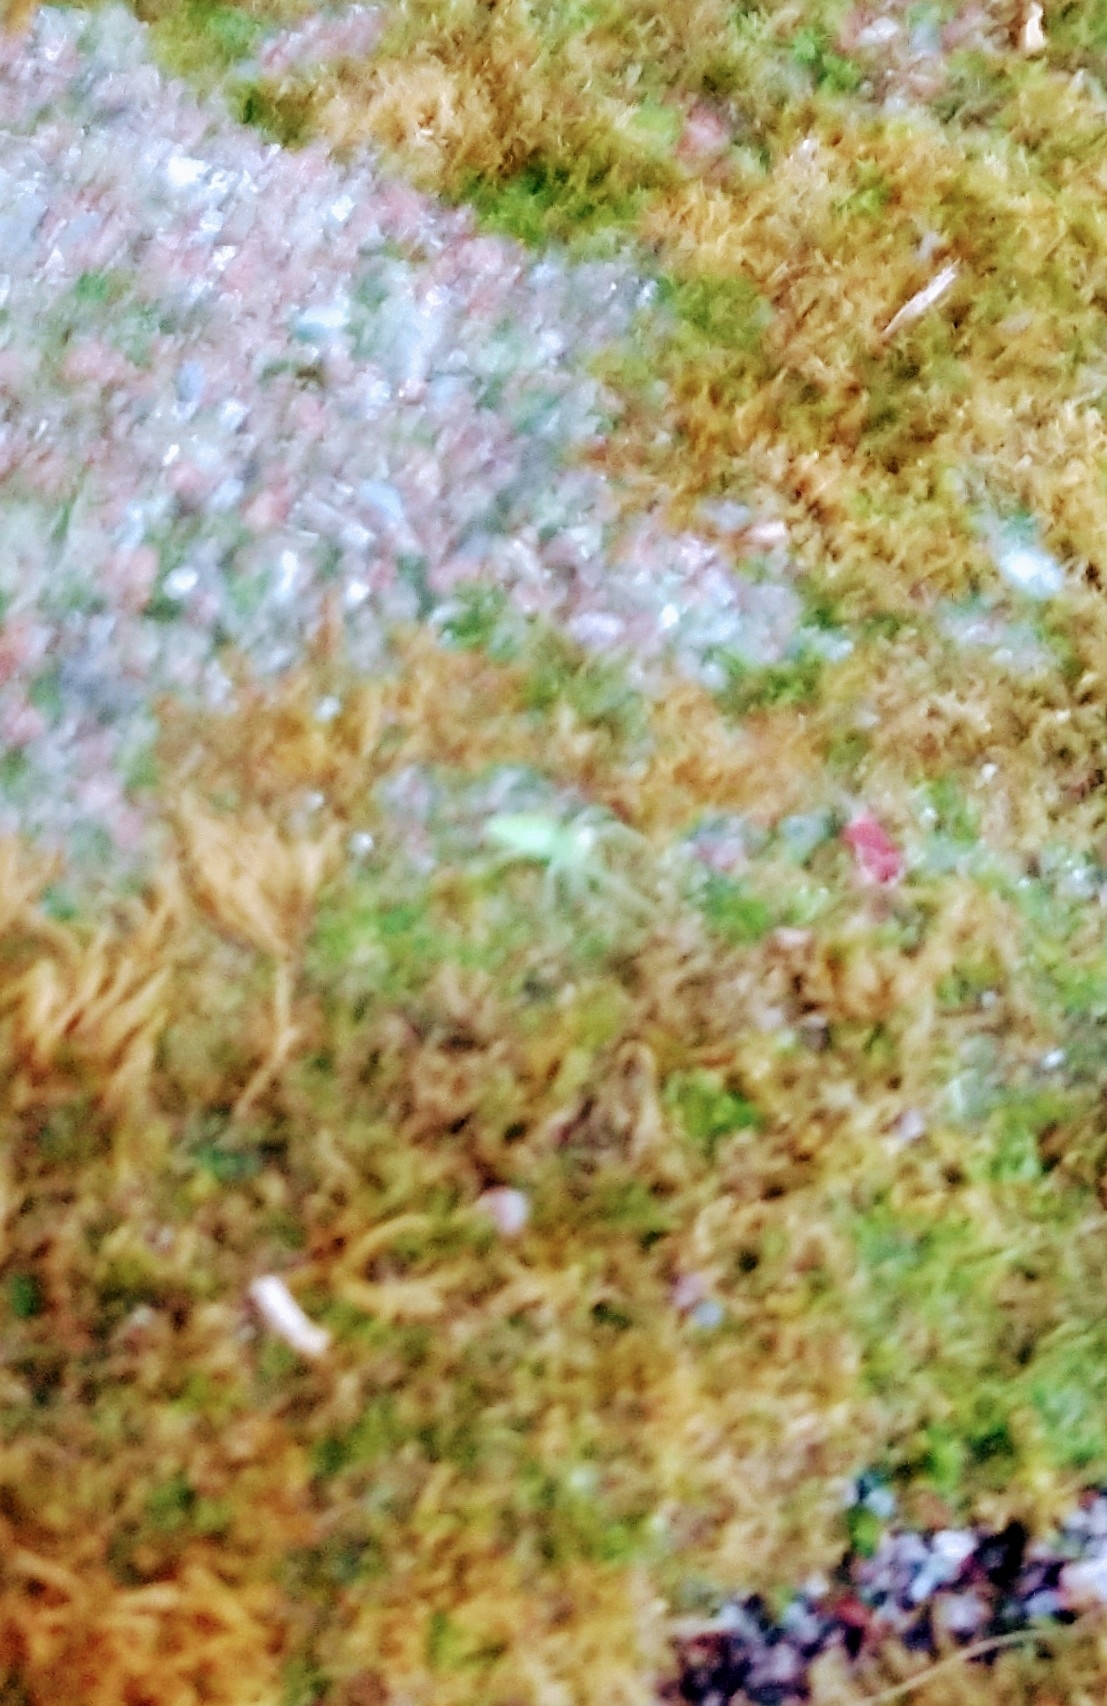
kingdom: Animalia
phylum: Arthropoda
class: Arachnida
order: Araneae
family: Salticidae
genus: Lyssomanes
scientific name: Lyssomanes viridis
